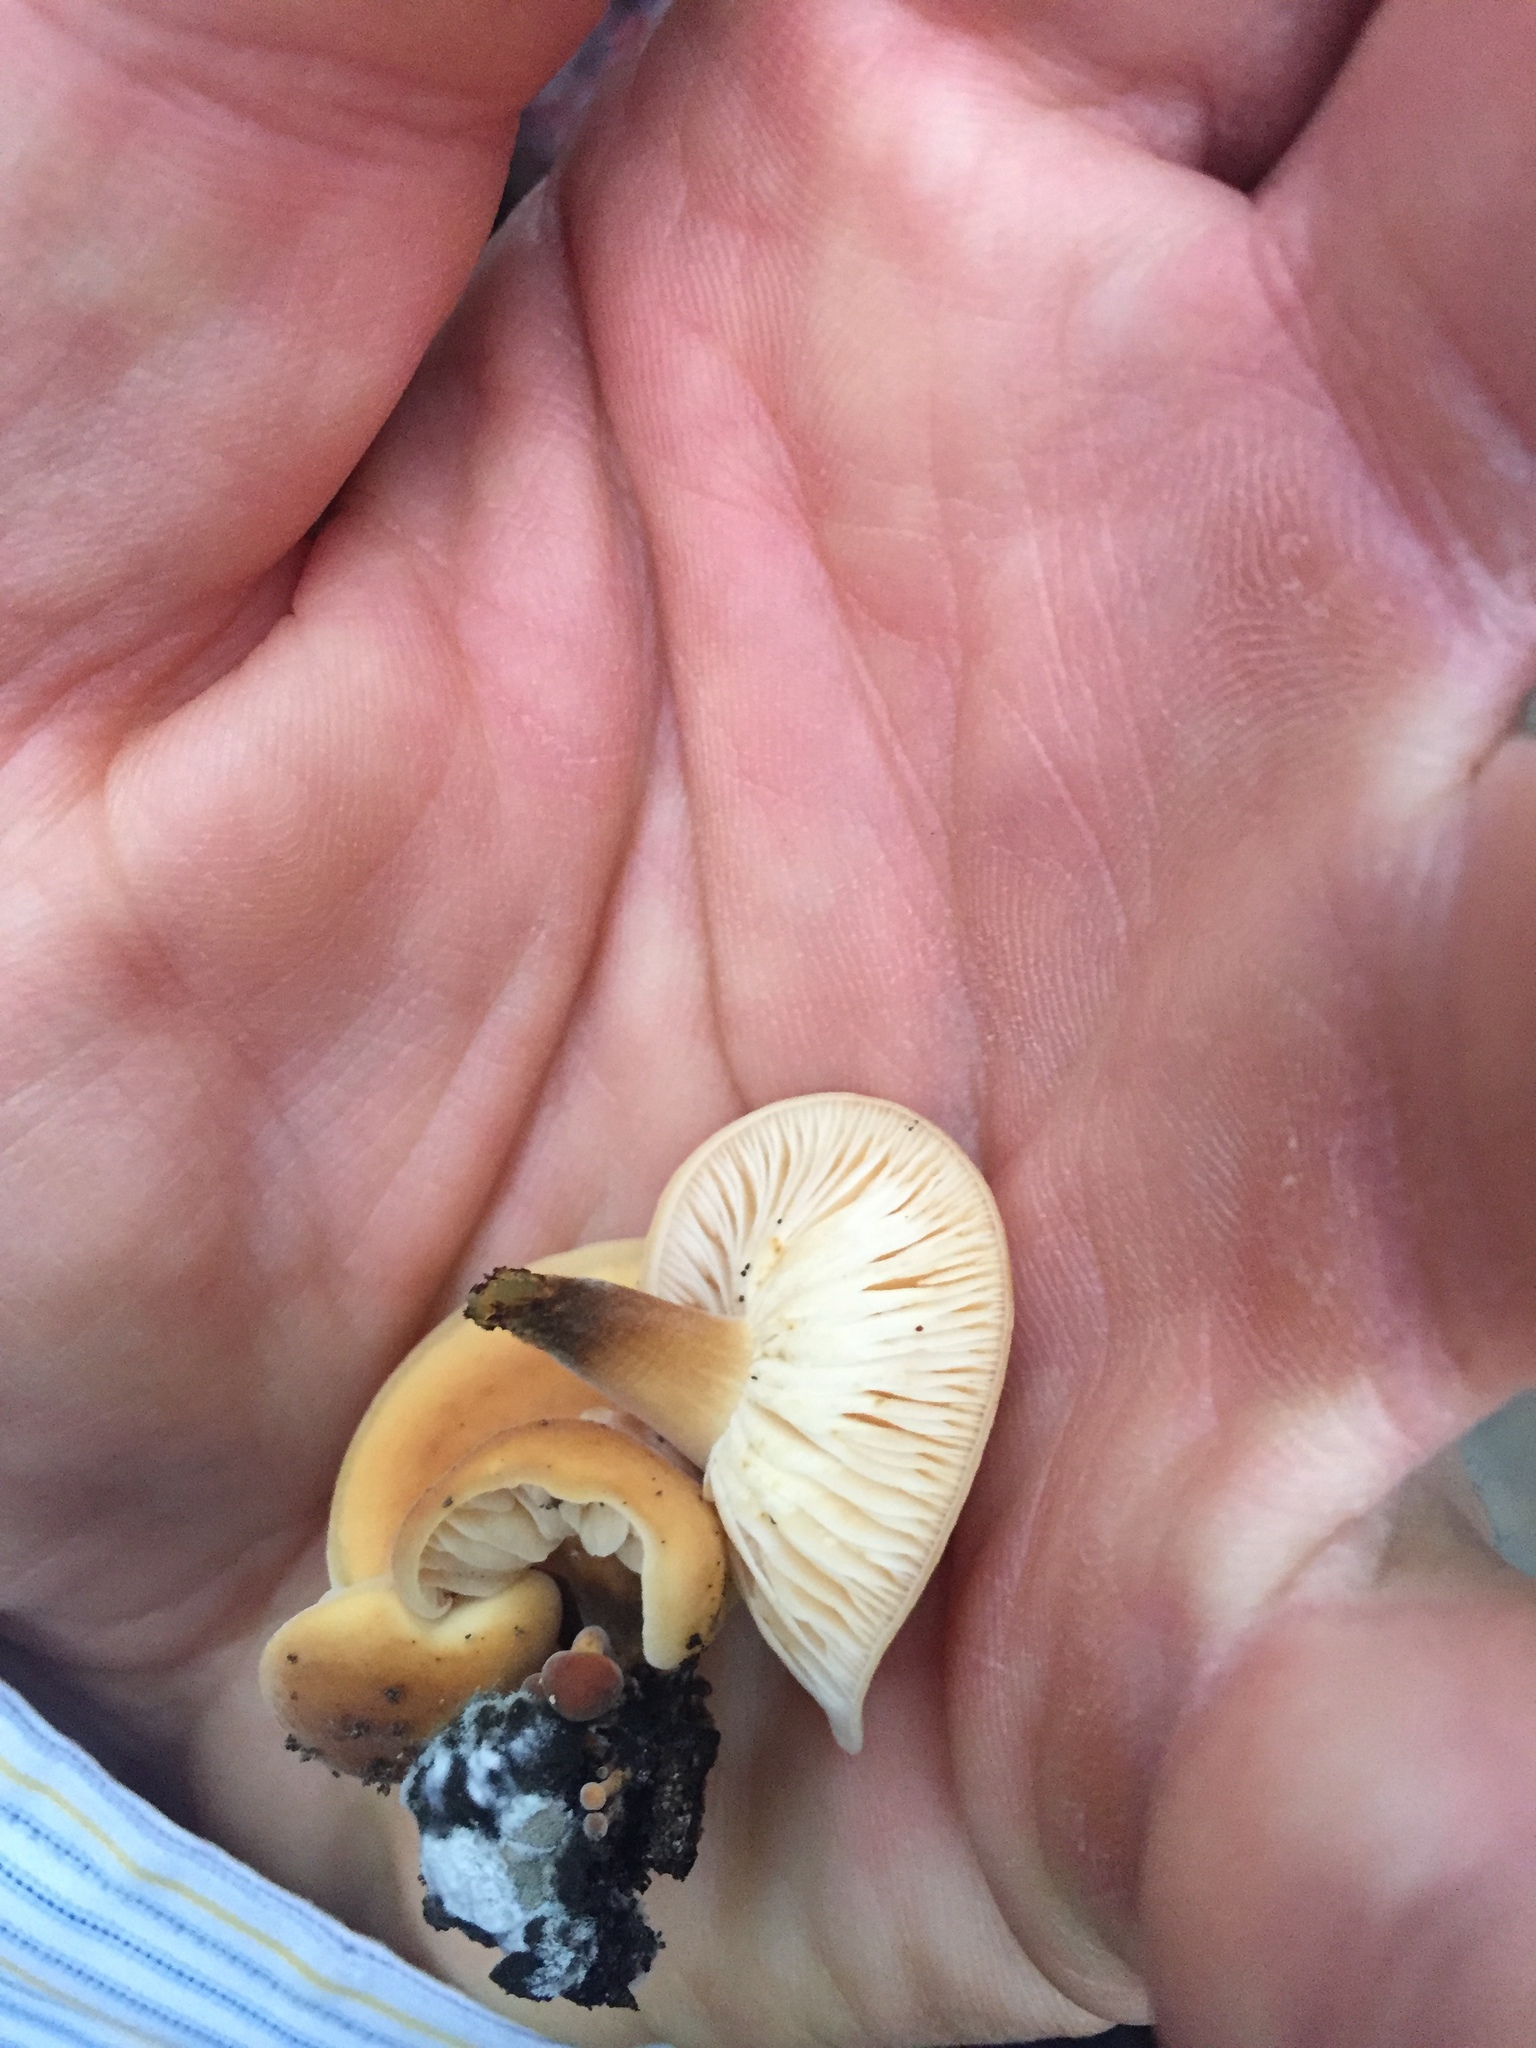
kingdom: Fungi
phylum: Basidiomycota
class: Agaricomycetes
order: Agaricales
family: Physalacriaceae
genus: Flammulina
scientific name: Flammulina velutipes
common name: Velvet shank
